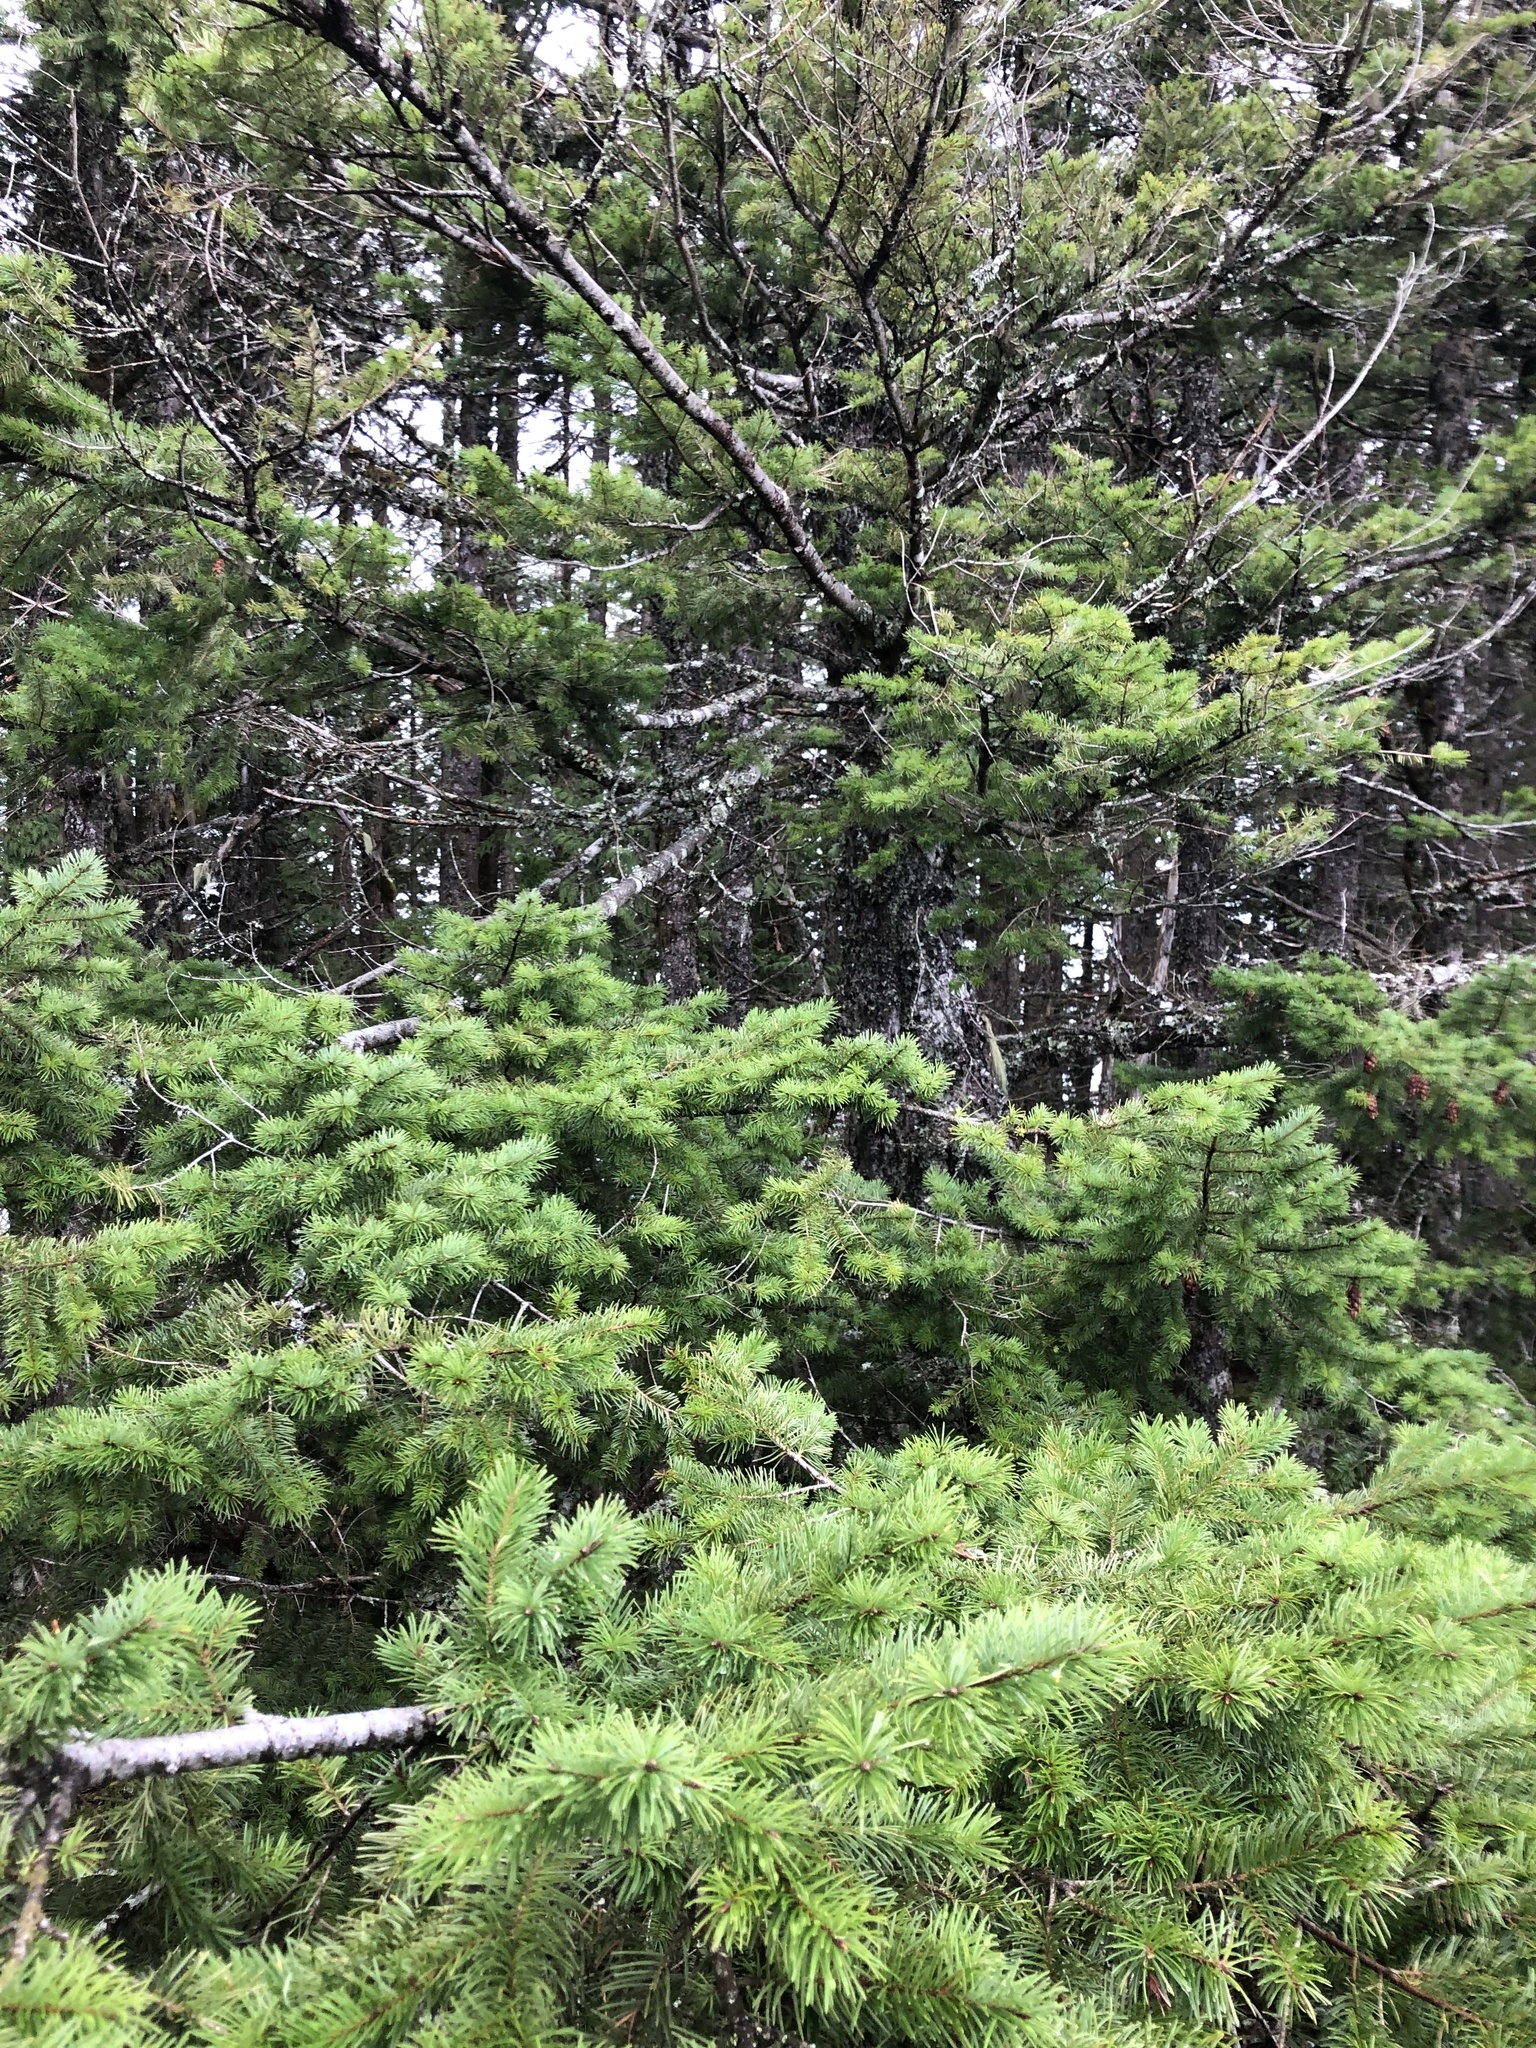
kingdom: Plantae
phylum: Tracheophyta
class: Pinopsida
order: Pinales
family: Pinaceae
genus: Pseudotsuga
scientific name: Pseudotsuga menziesii
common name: Douglas fir
